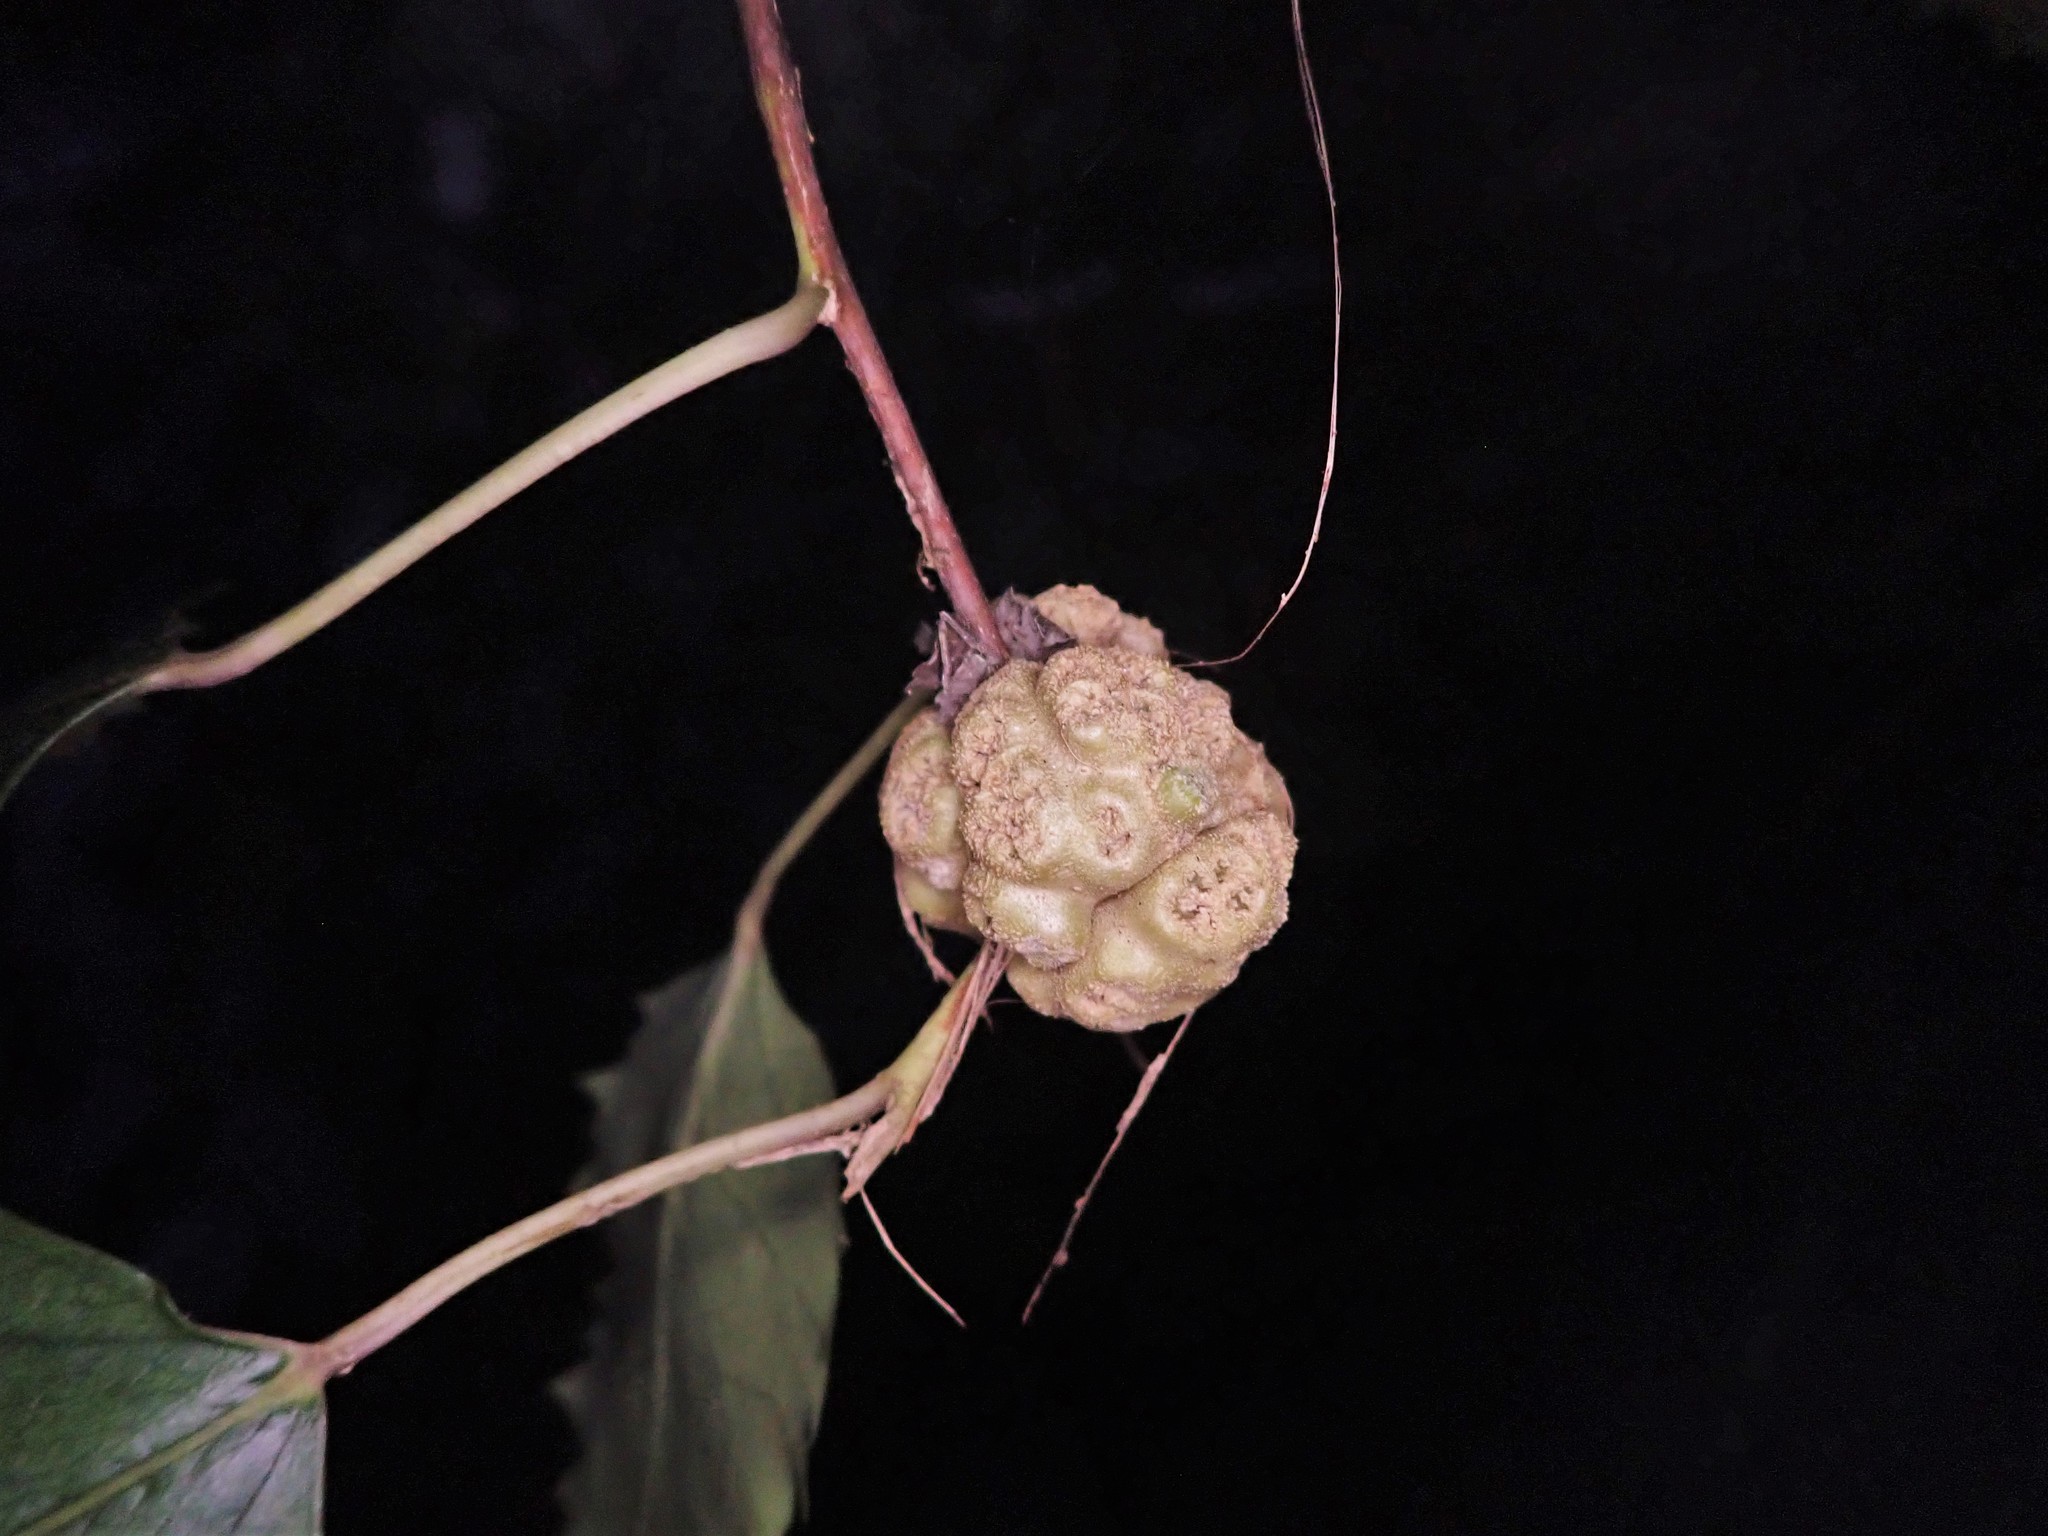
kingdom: Animalia
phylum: Arthropoda
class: Arachnida
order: Trombidiformes
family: Eriophyidae
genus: Eriophyes
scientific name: Eriophyes hoheriae
